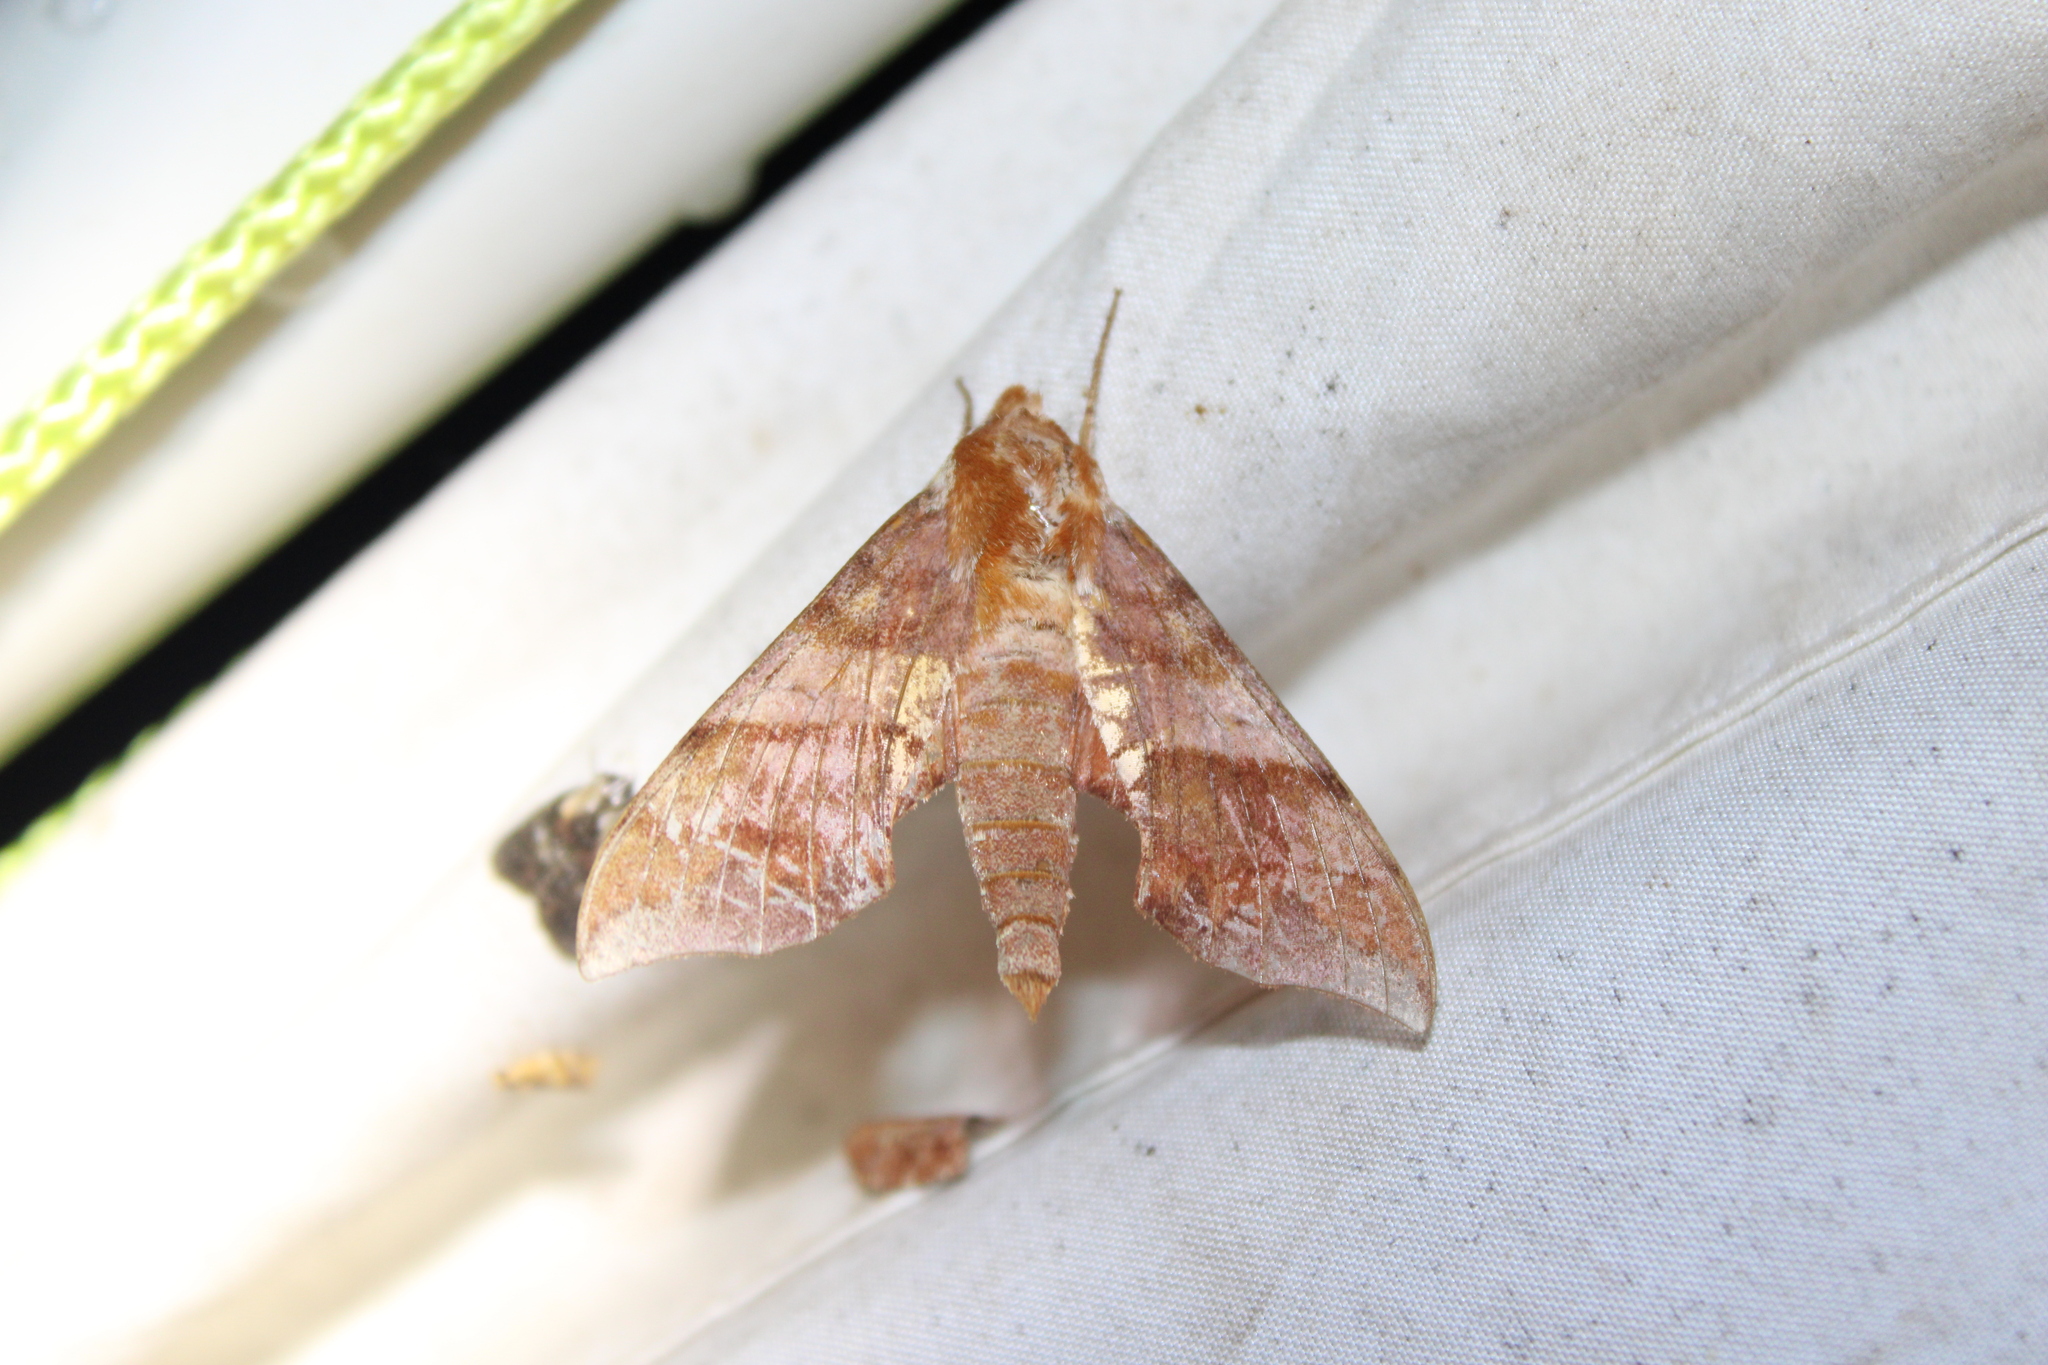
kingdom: Animalia
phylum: Arthropoda
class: Insecta
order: Lepidoptera
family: Sphingidae
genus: Darapsa
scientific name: Darapsa choerilus
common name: Azalea sphinx
